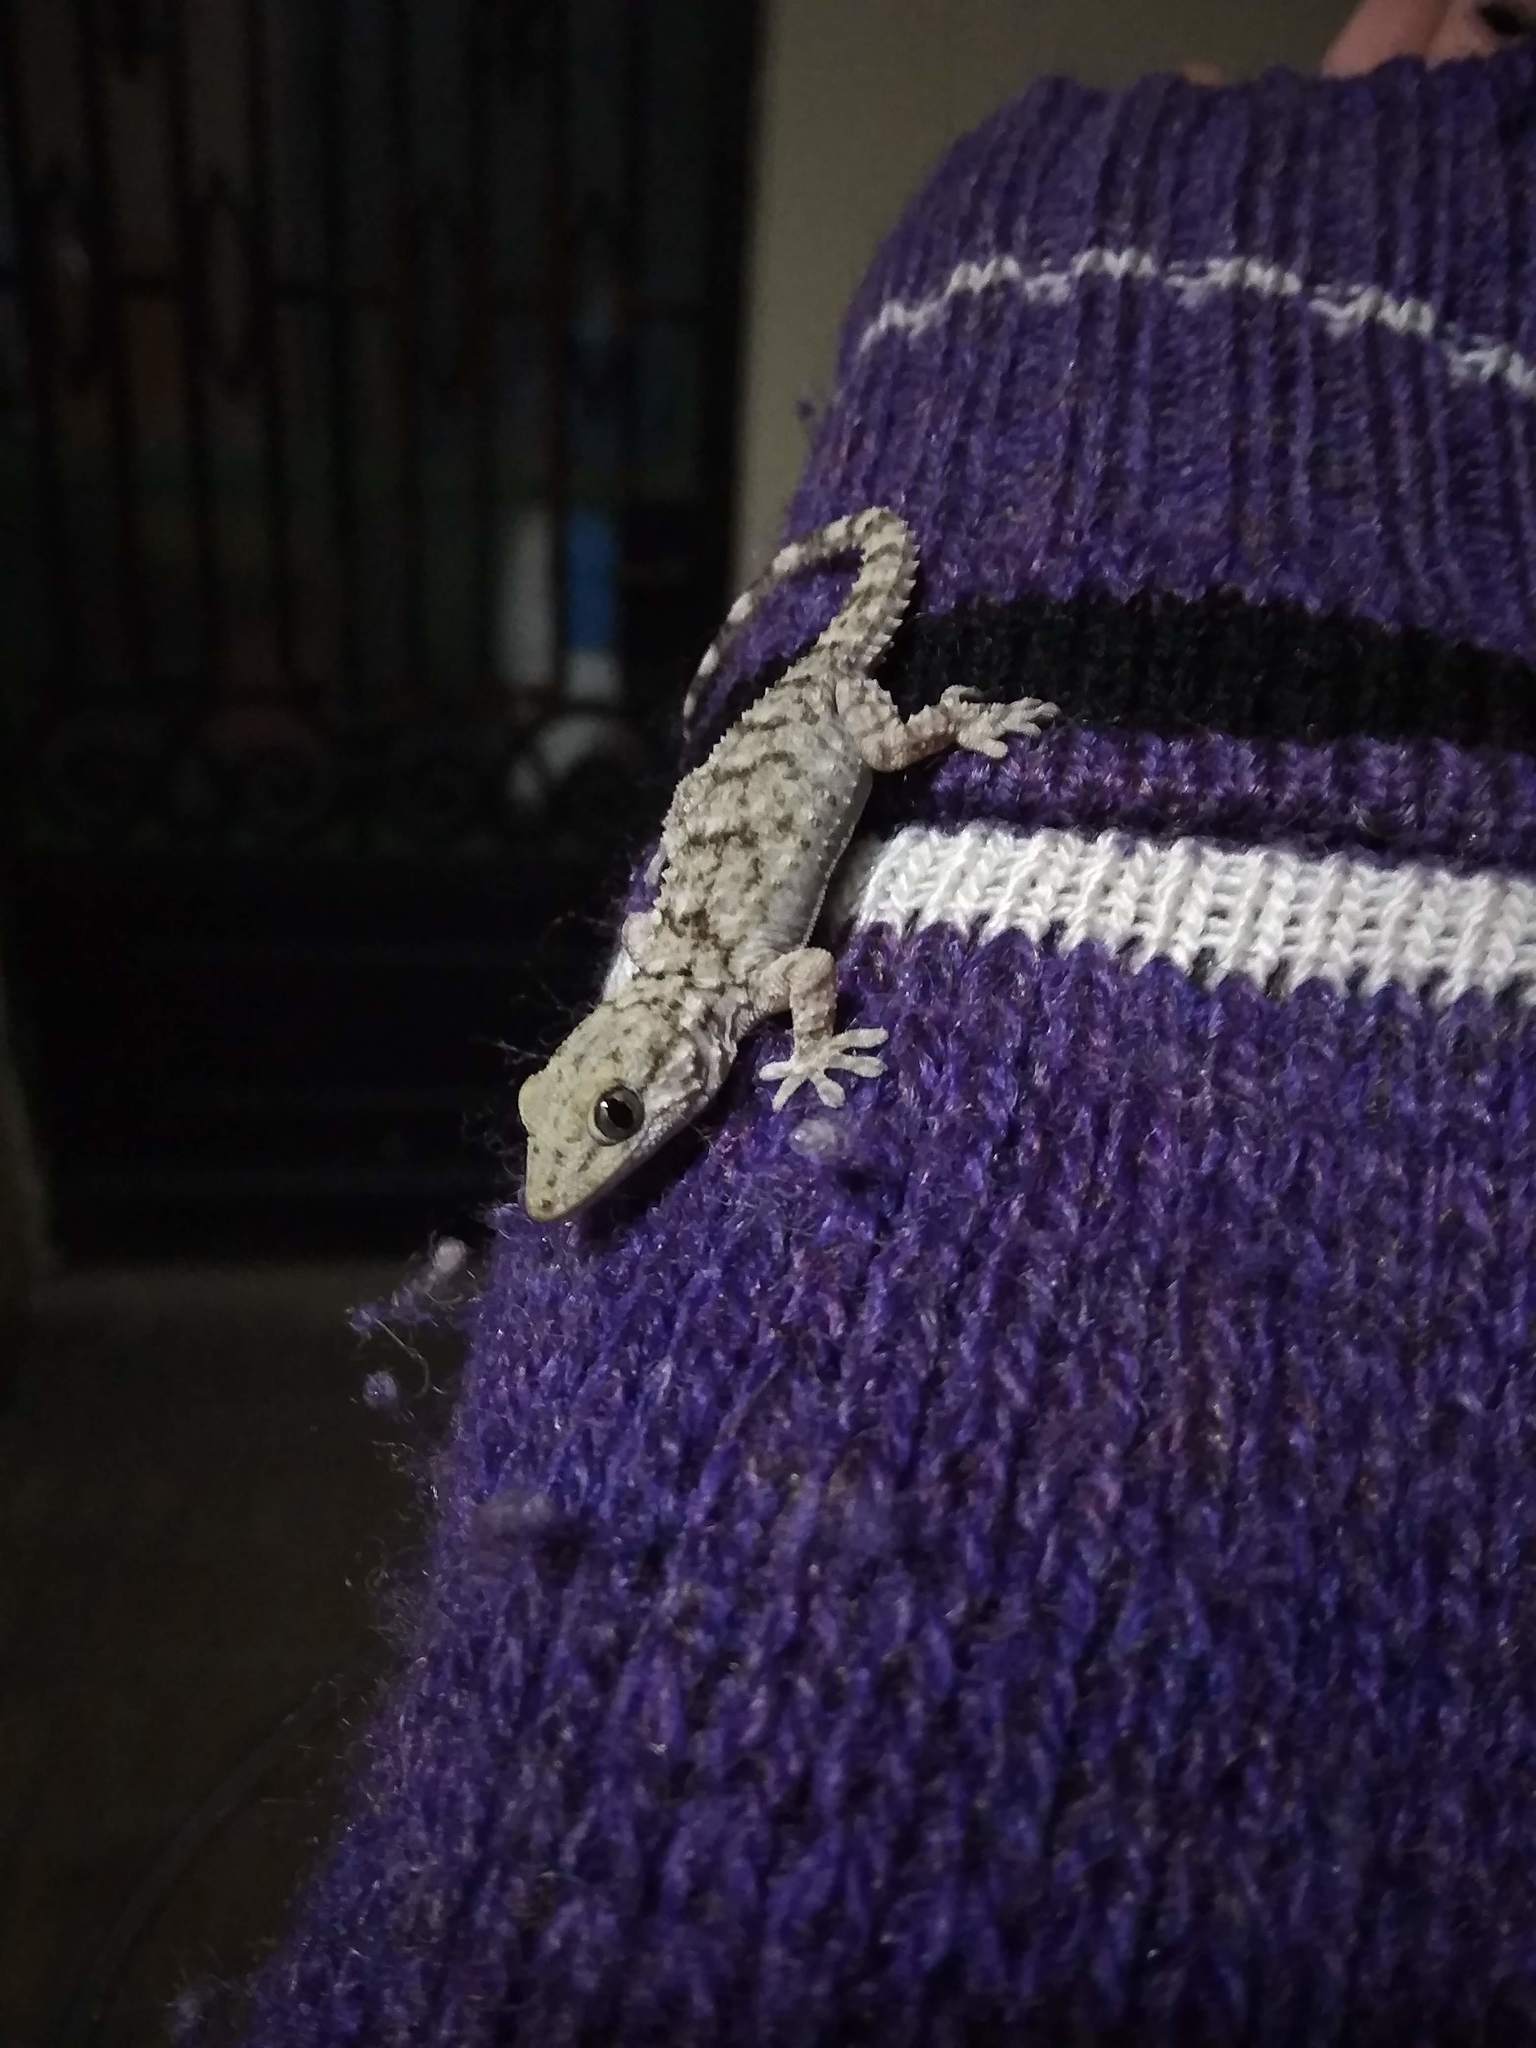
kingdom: Animalia
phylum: Chordata
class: Squamata
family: Phyllodactylidae
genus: Tarentola
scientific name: Tarentola mauritanica
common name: Moorish gecko
